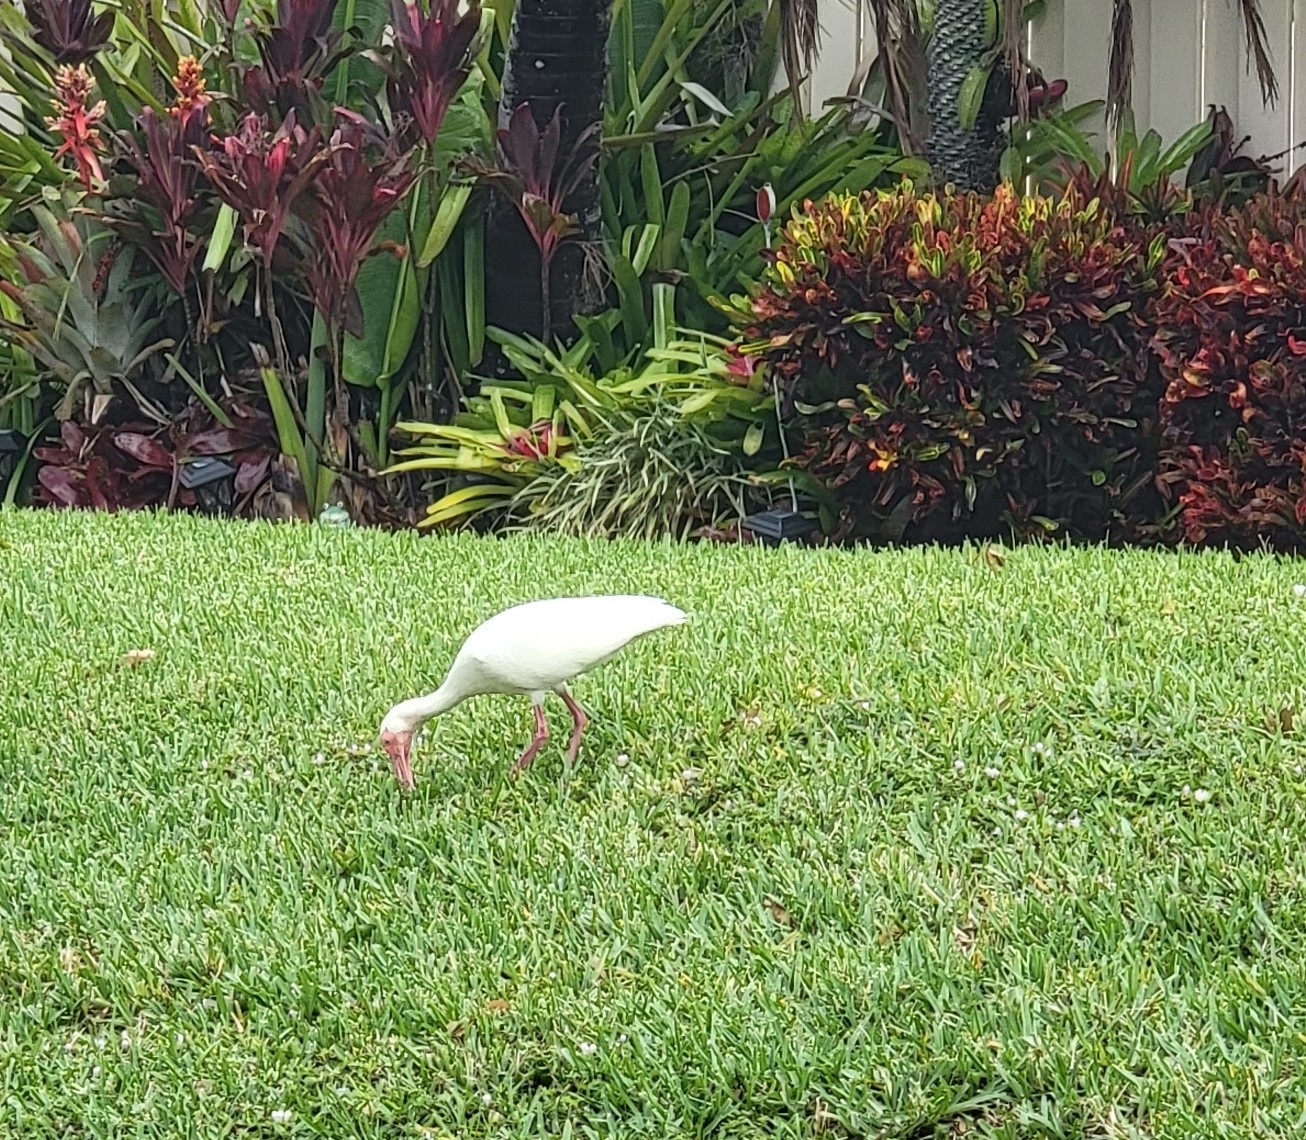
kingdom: Animalia
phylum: Chordata
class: Aves
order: Pelecaniformes
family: Threskiornithidae
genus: Eudocimus
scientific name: Eudocimus albus
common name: White ibis
